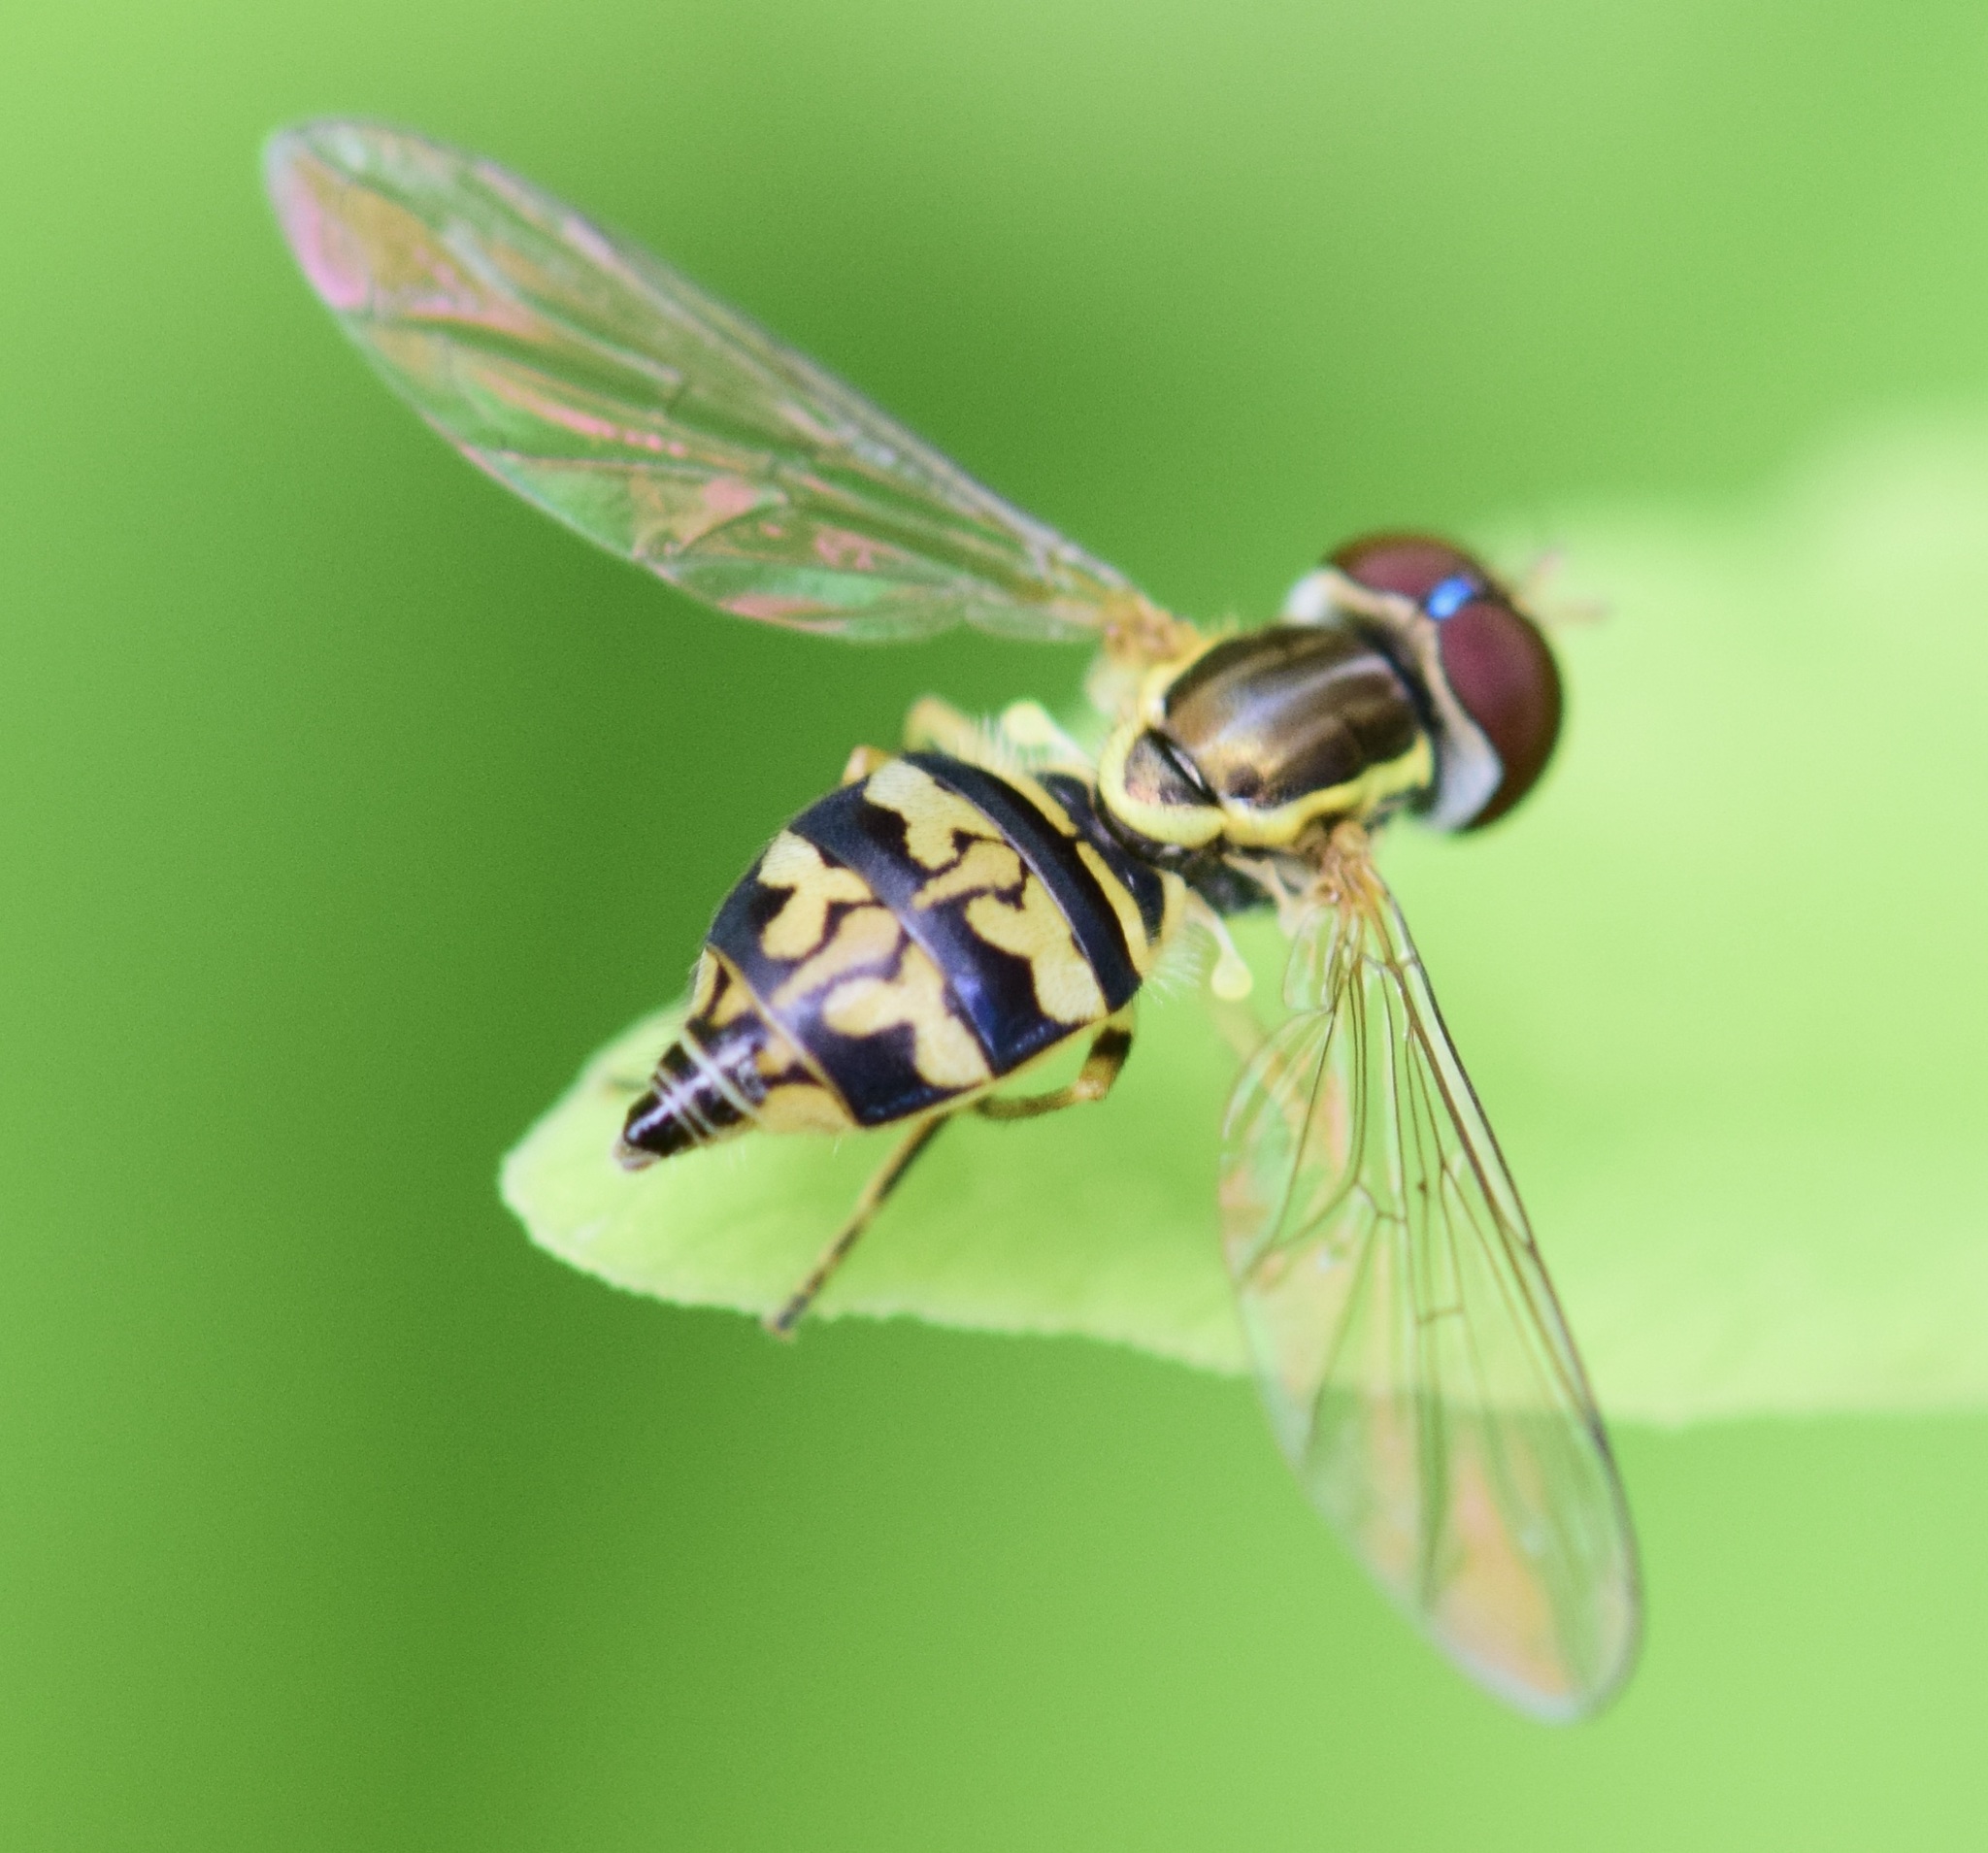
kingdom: Animalia
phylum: Arthropoda
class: Insecta
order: Diptera
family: Syrphidae
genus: Toxomerus
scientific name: Toxomerus geminatus
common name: Eastern calligrapher
